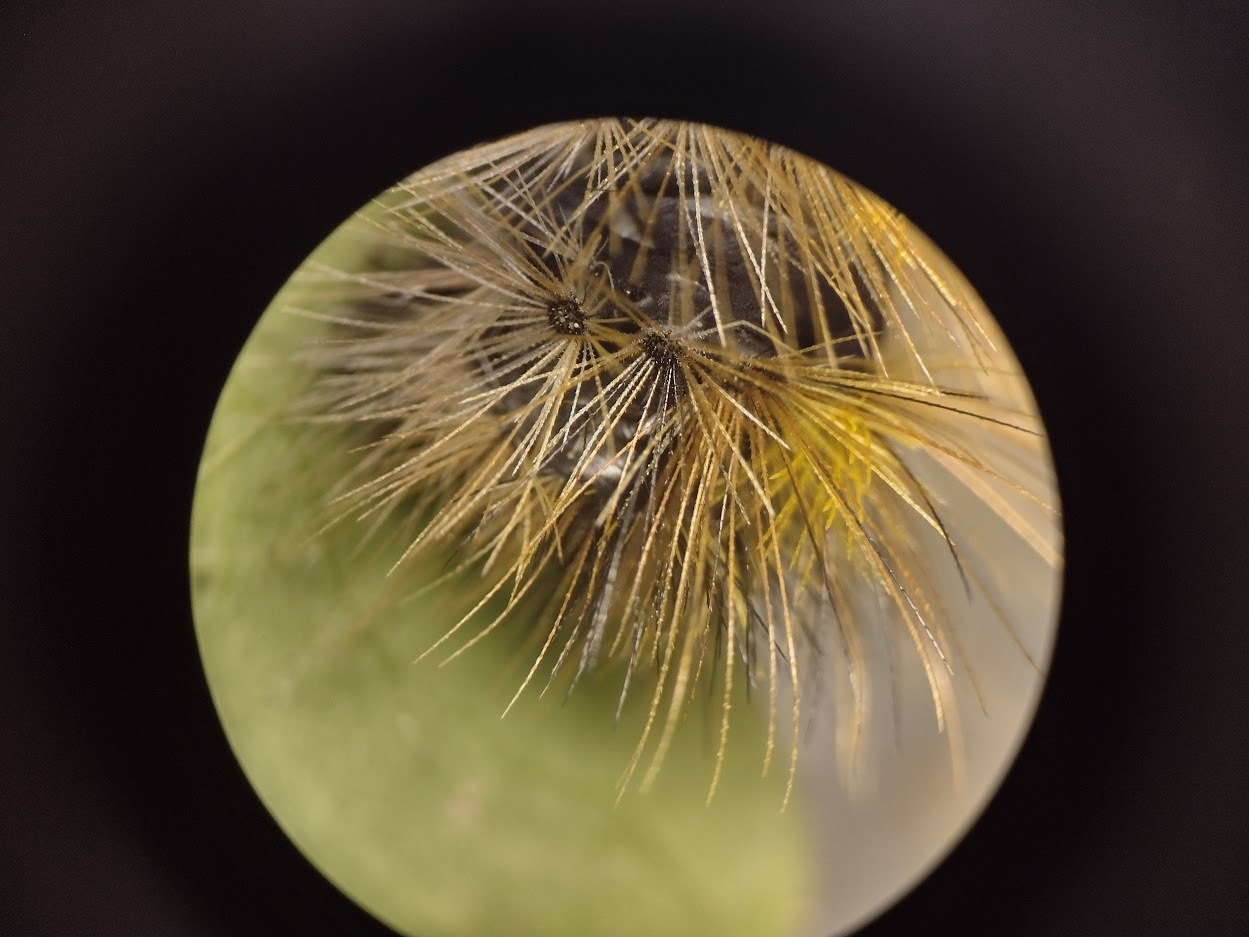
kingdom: Animalia
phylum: Arthropoda
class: Insecta
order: Lepidoptera
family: Erebidae
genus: Lophocampa
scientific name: Lophocampa argentata
